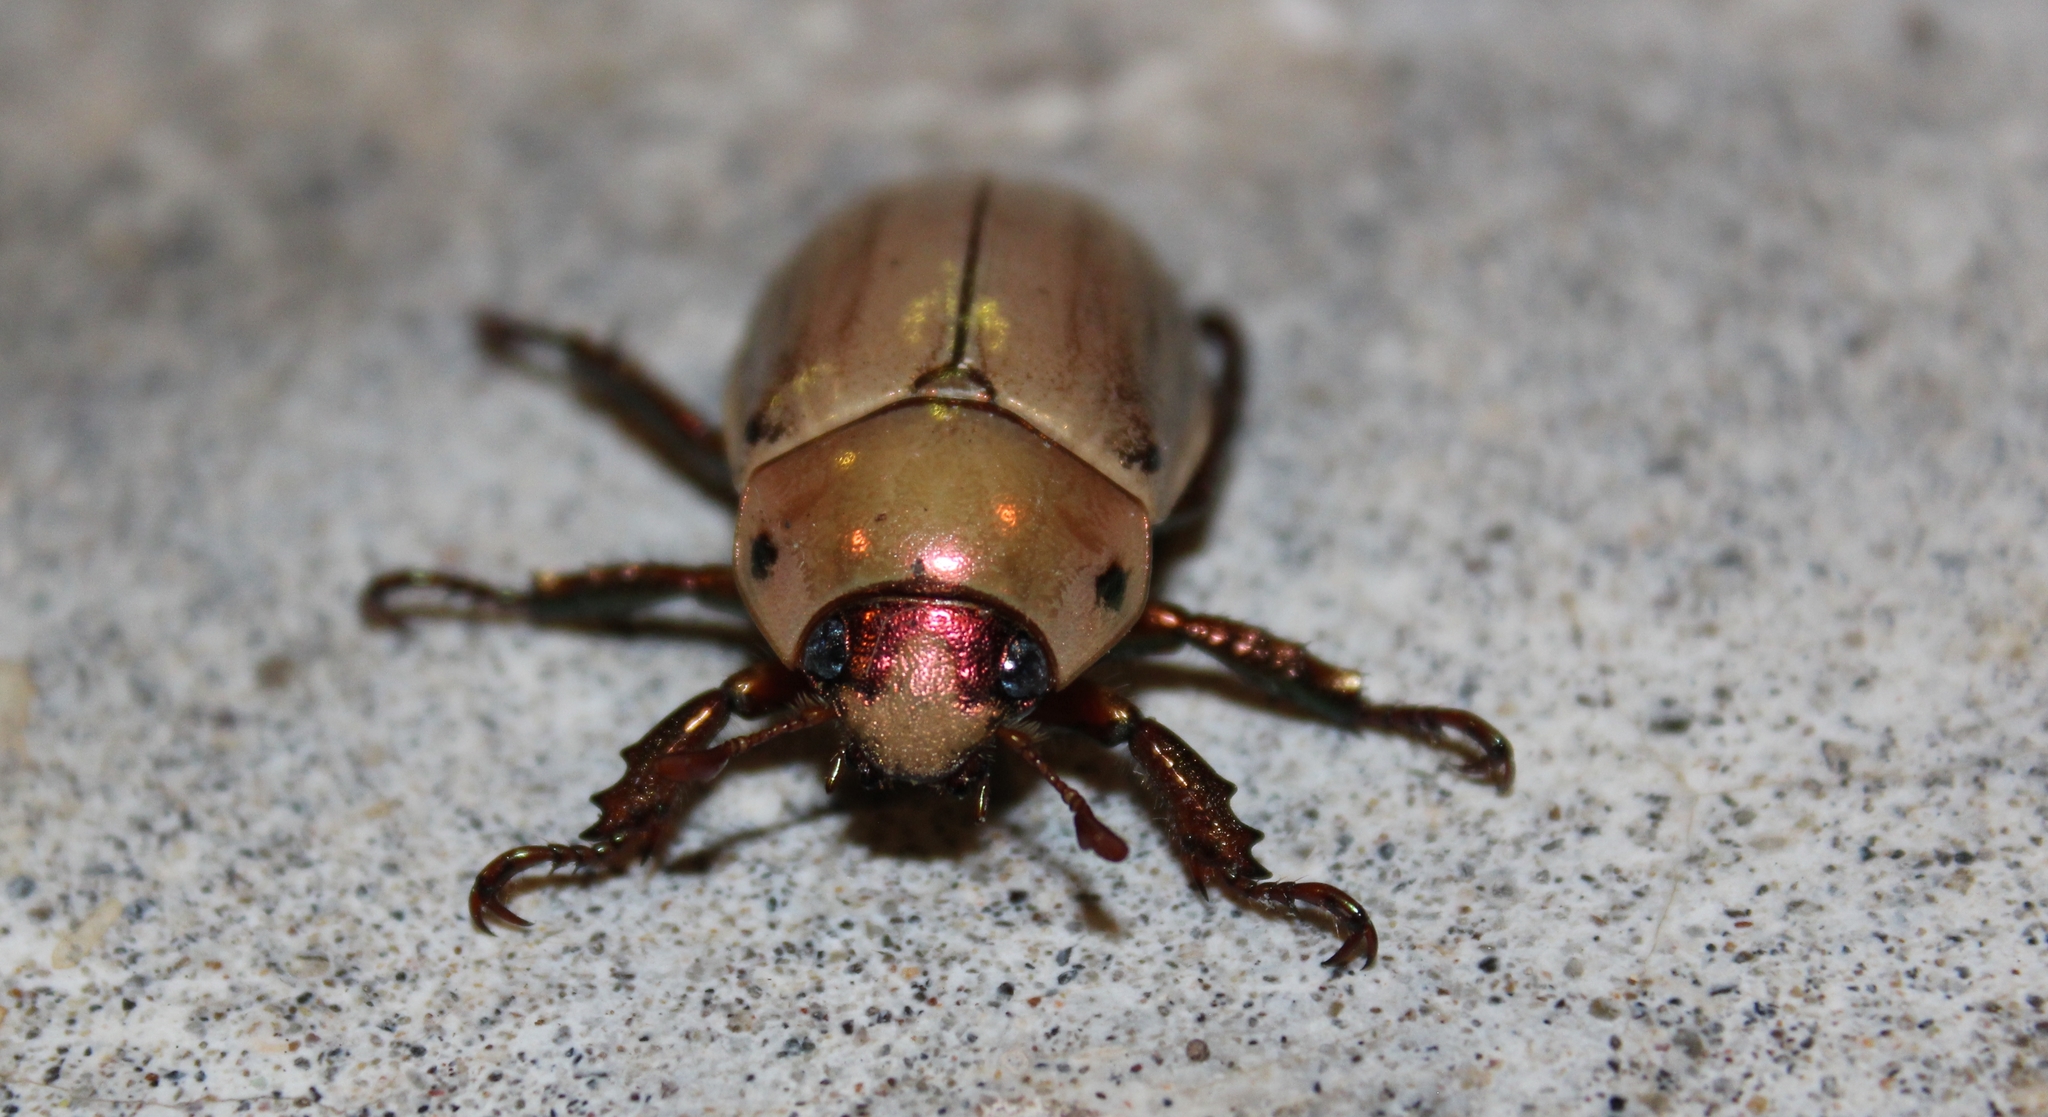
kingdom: Animalia
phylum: Arthropoda
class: Insecta
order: Coleoptera
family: Scarabaeidae
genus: Pelidnota
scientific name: Pelidnota virescens
